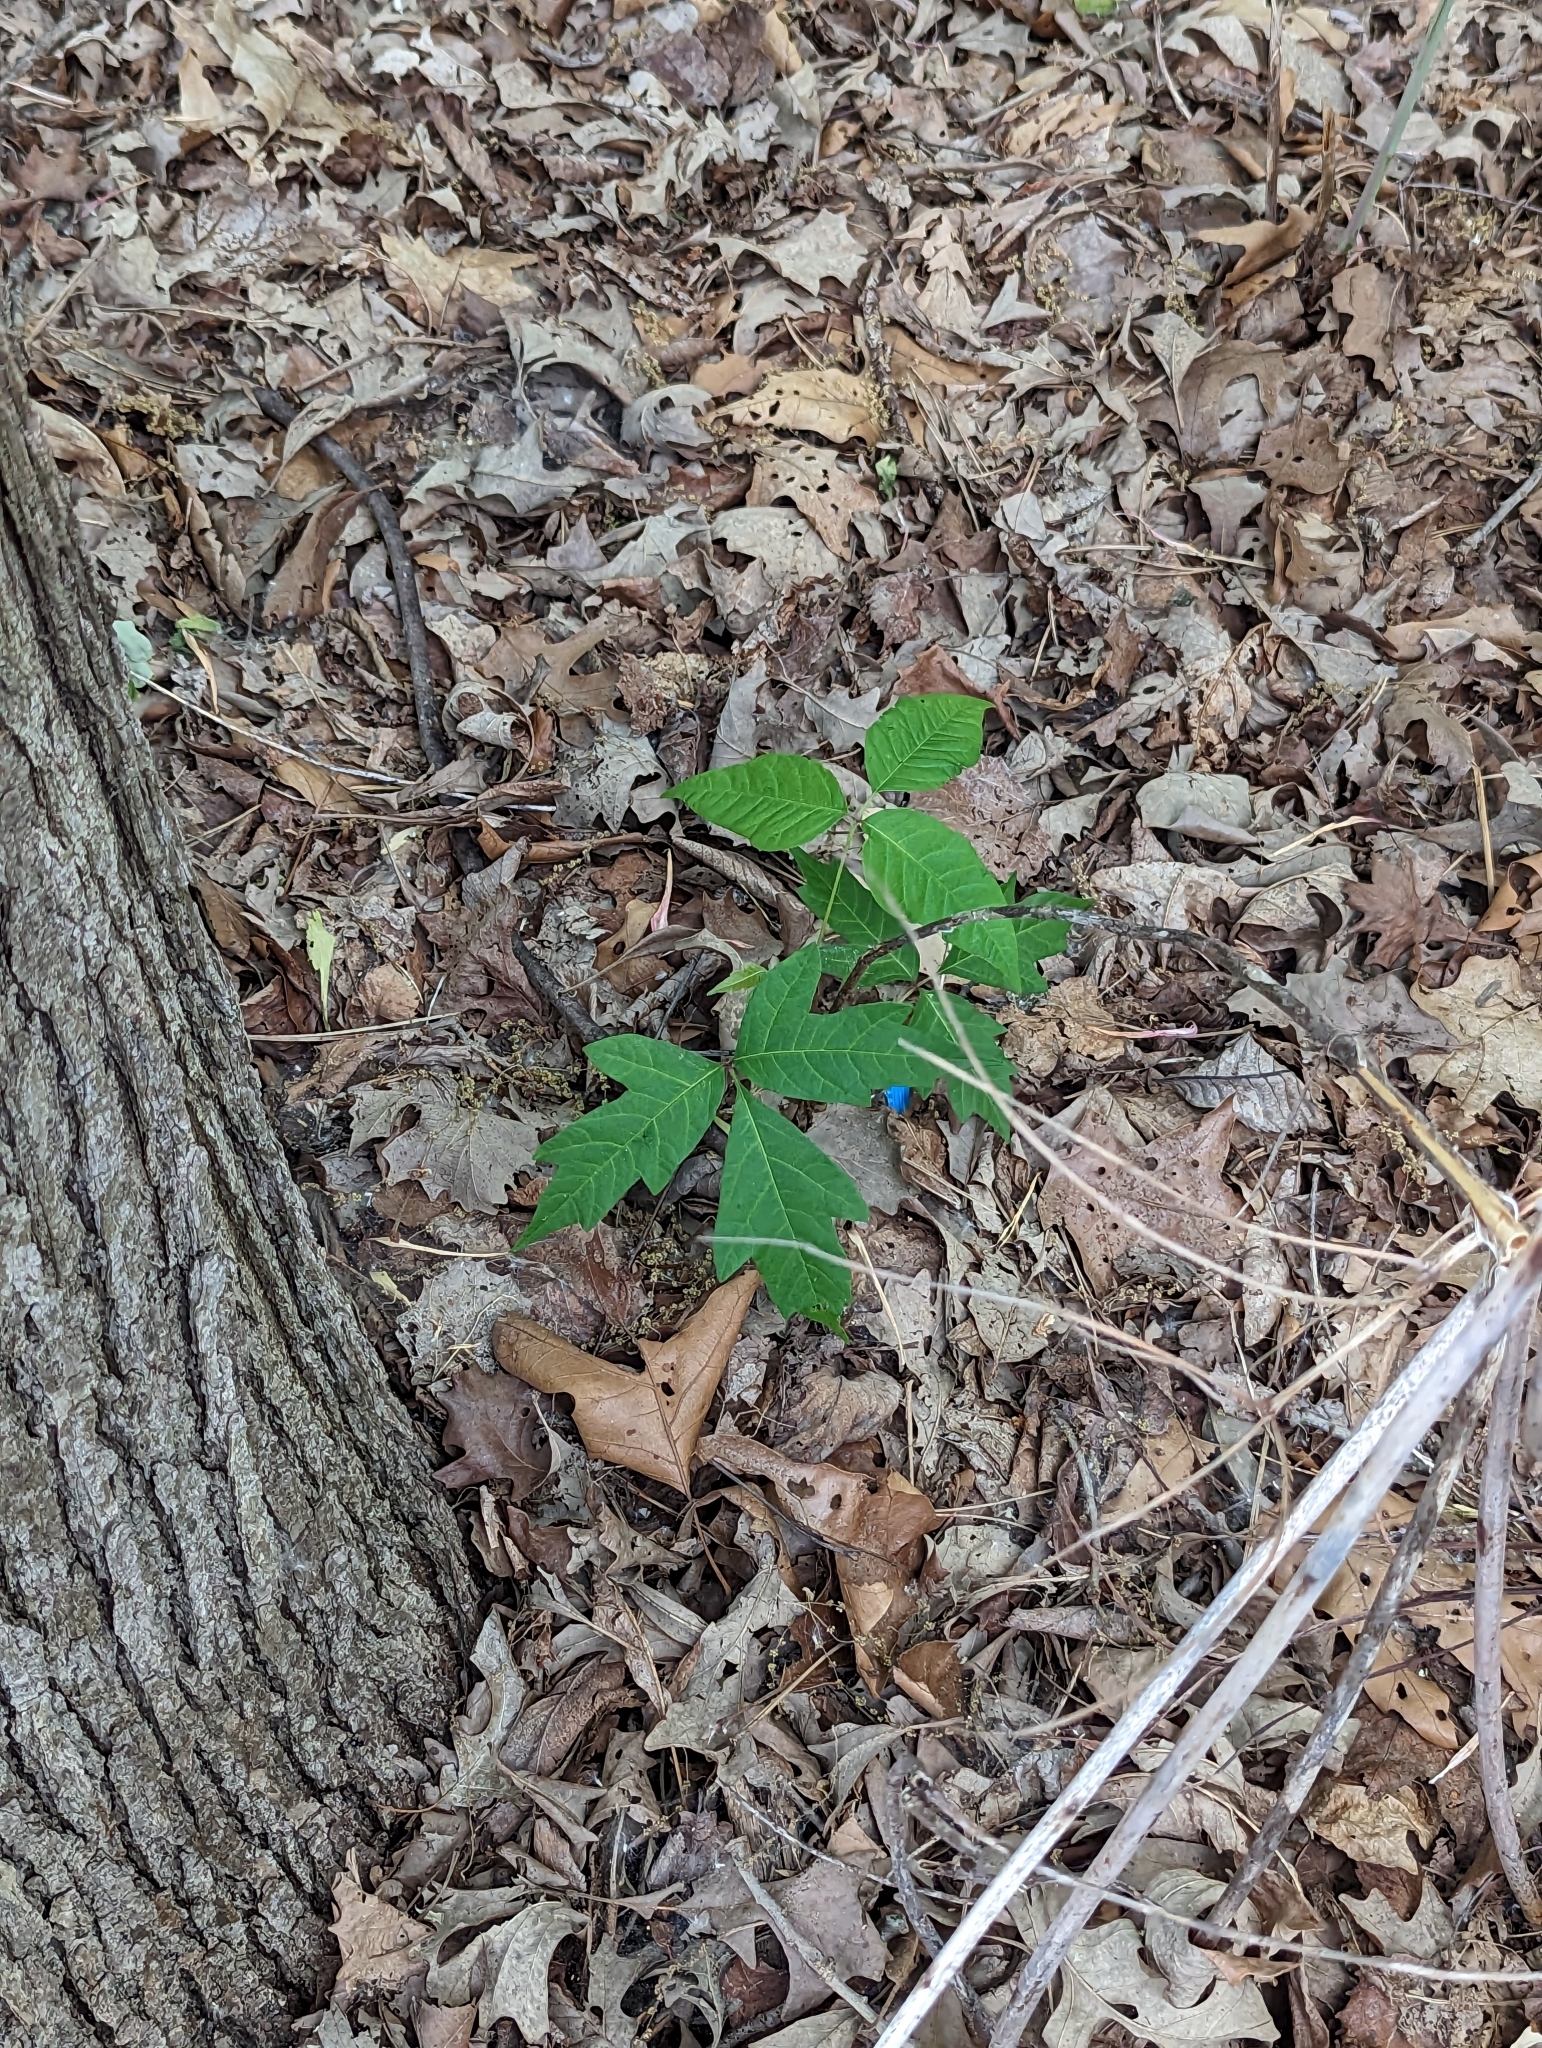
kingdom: Plantae
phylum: Tracheophyta
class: Magnoliopsida
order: Sapindales
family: Anacardiaceae
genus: Toxicodendron
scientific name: Toxicodendron radicans
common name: Poison ivy
